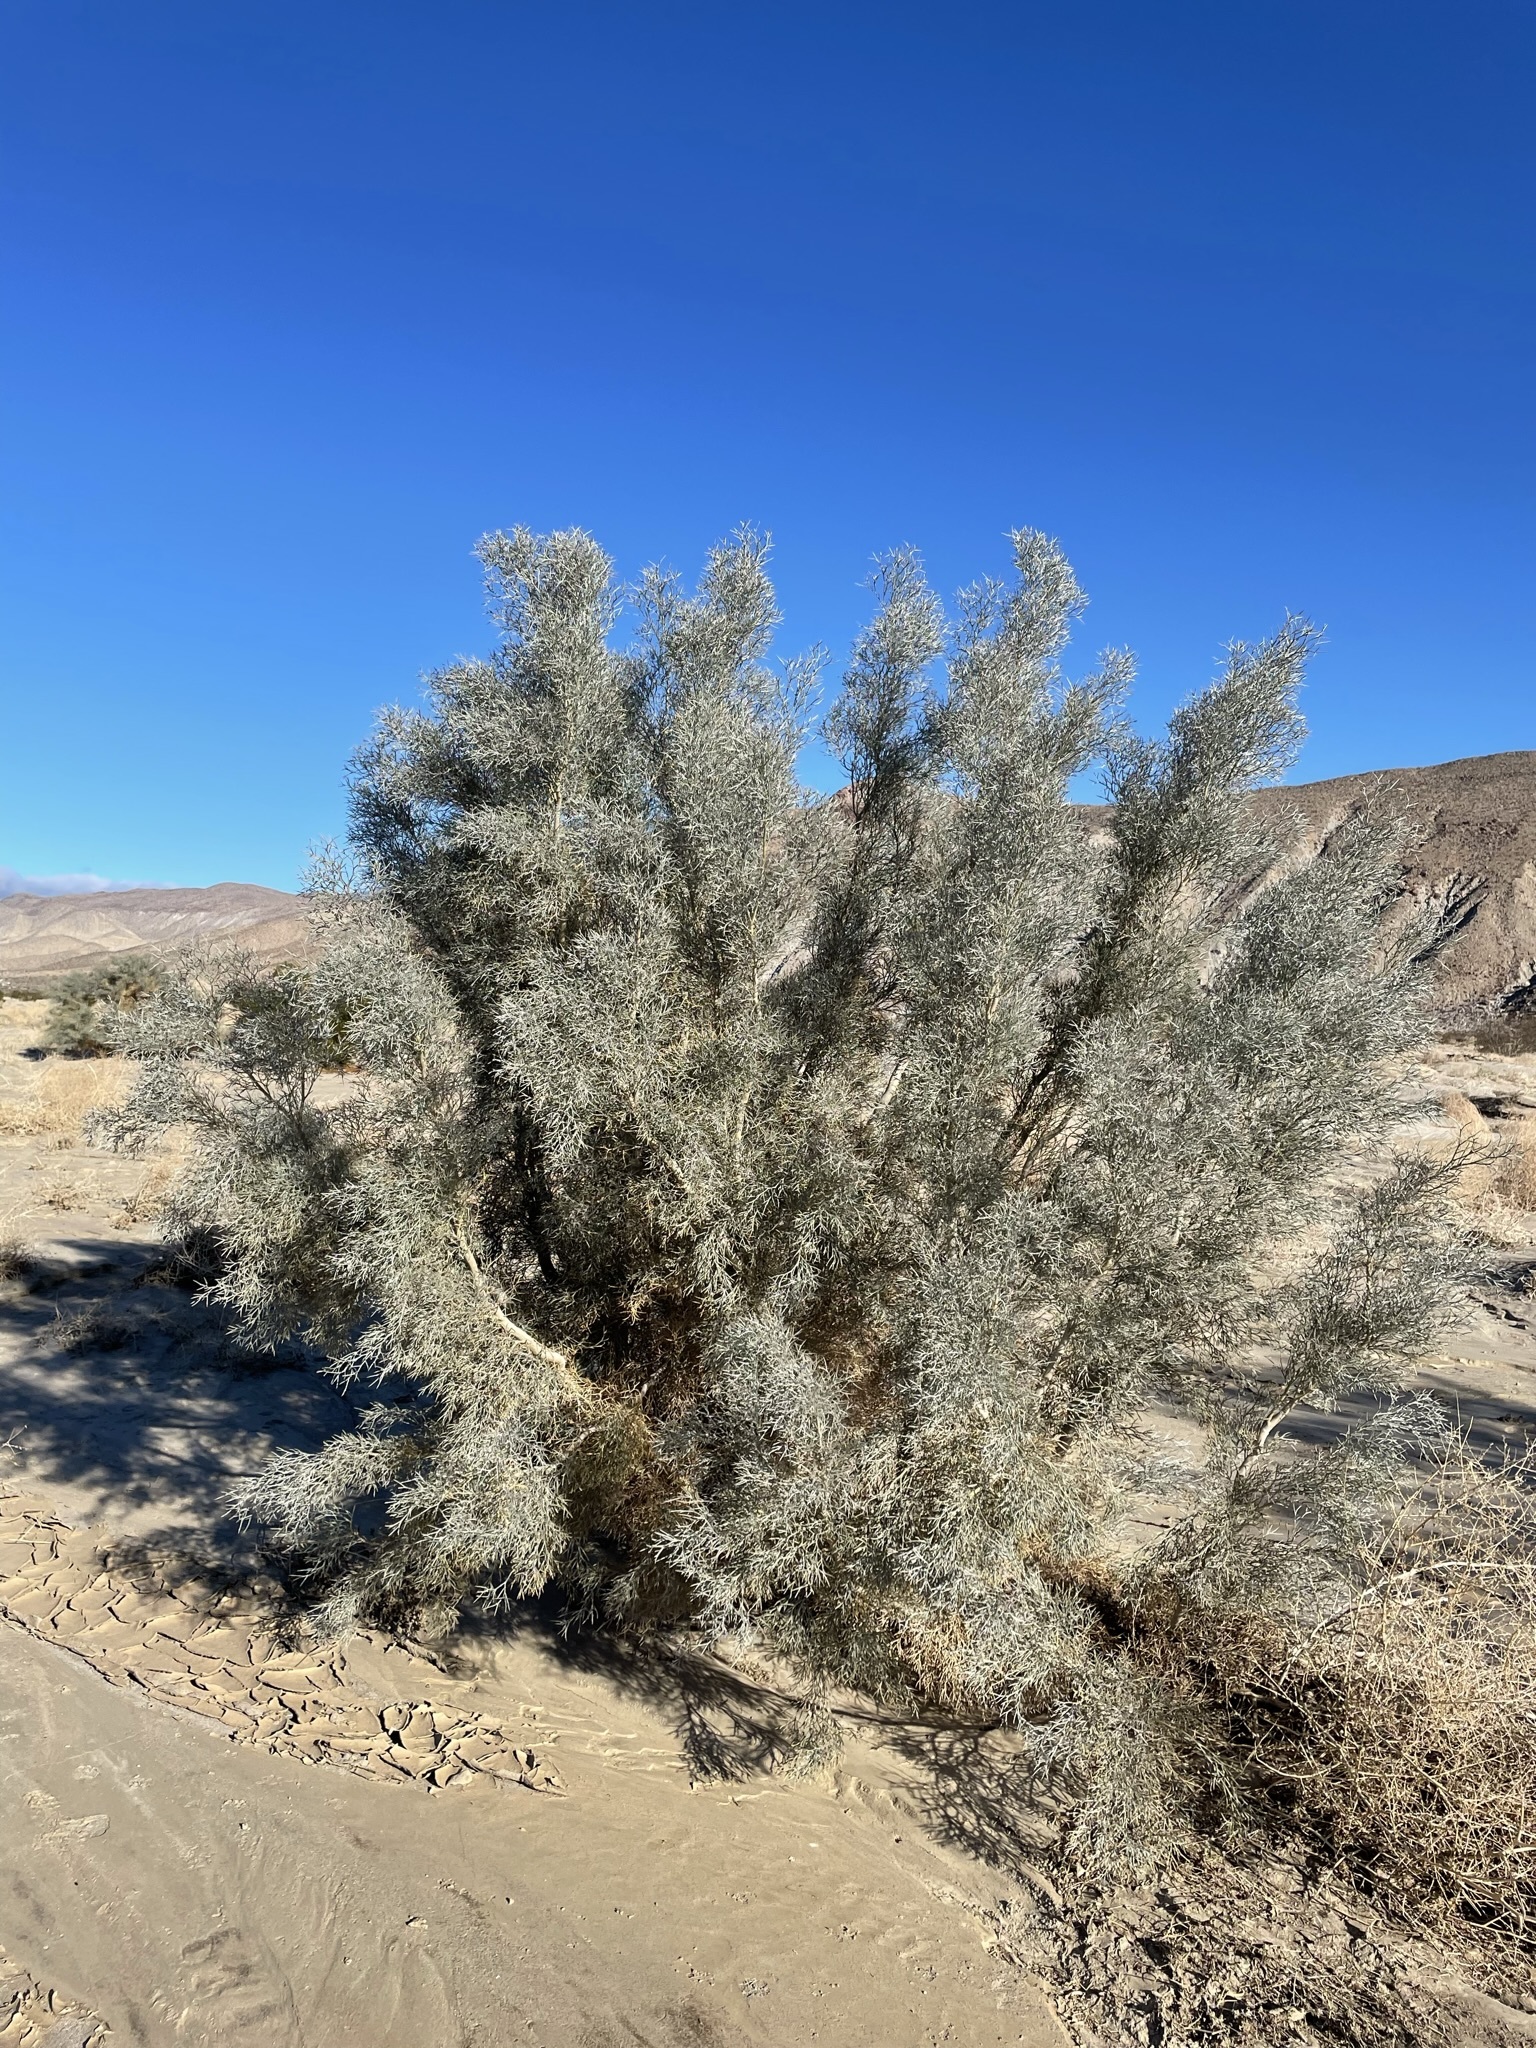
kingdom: Plantae
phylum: Tracheophyta
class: Magnoliopsida
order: Fabales
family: Fabaceae
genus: Psorothamnus
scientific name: Psorothamnus spinosus
